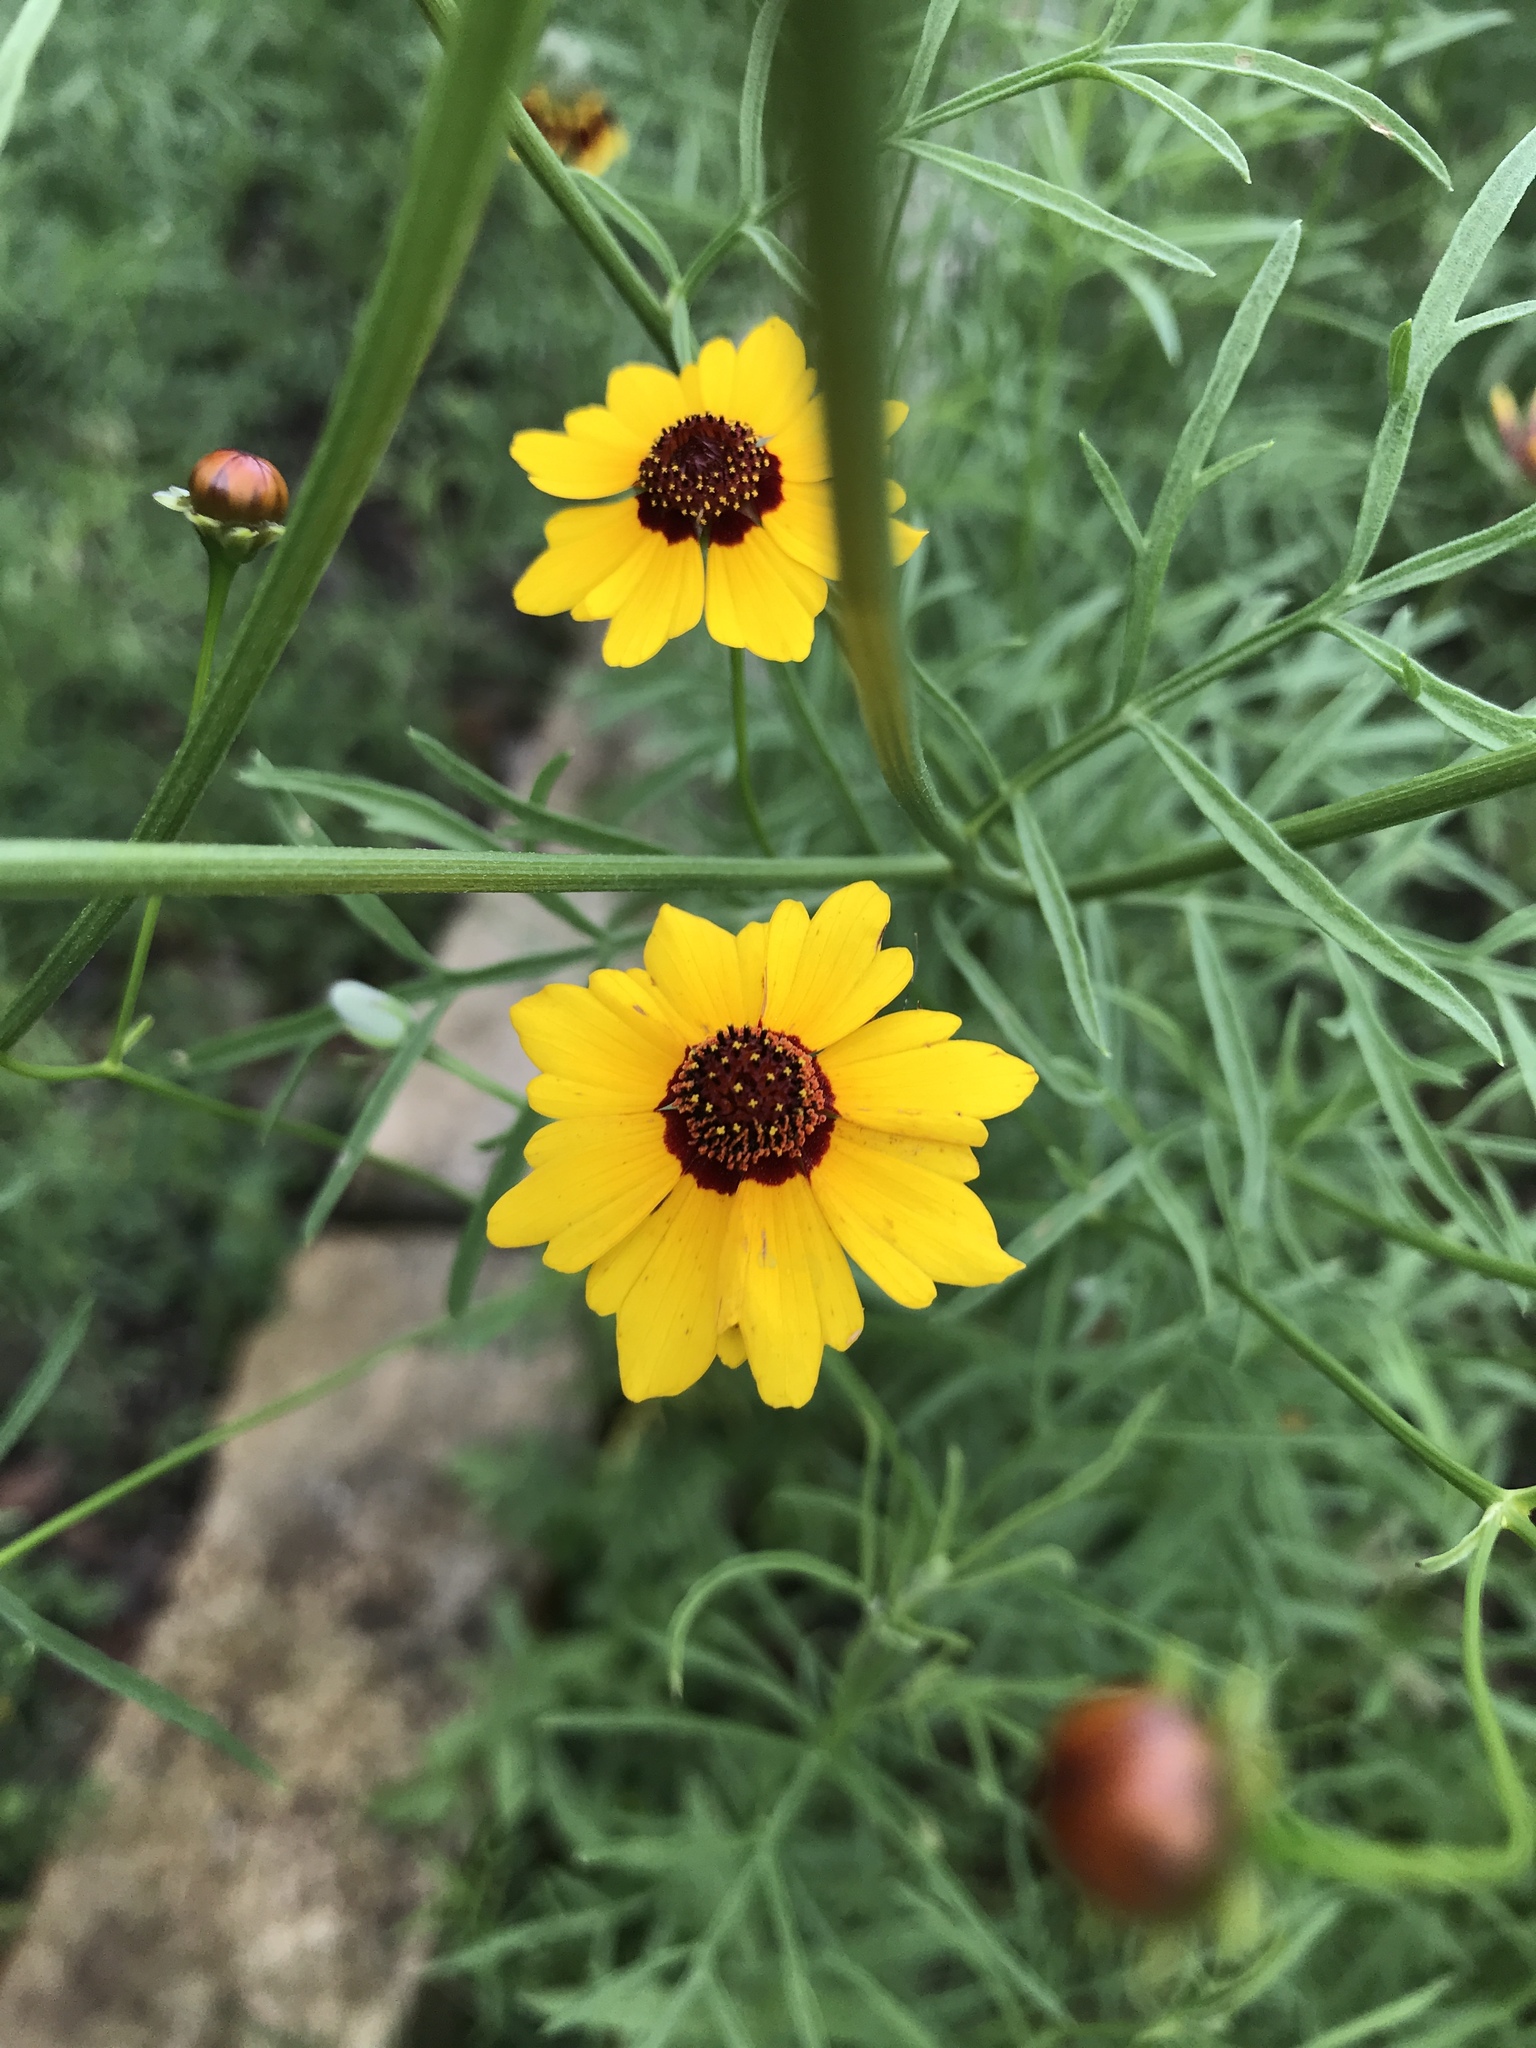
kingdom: Plantae
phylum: Tracheophyta
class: Magnoliopsida
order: Asterales
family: Asteraceae
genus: Coreopsis
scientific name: Coreopsis tinctoria
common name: Garden tickseed
